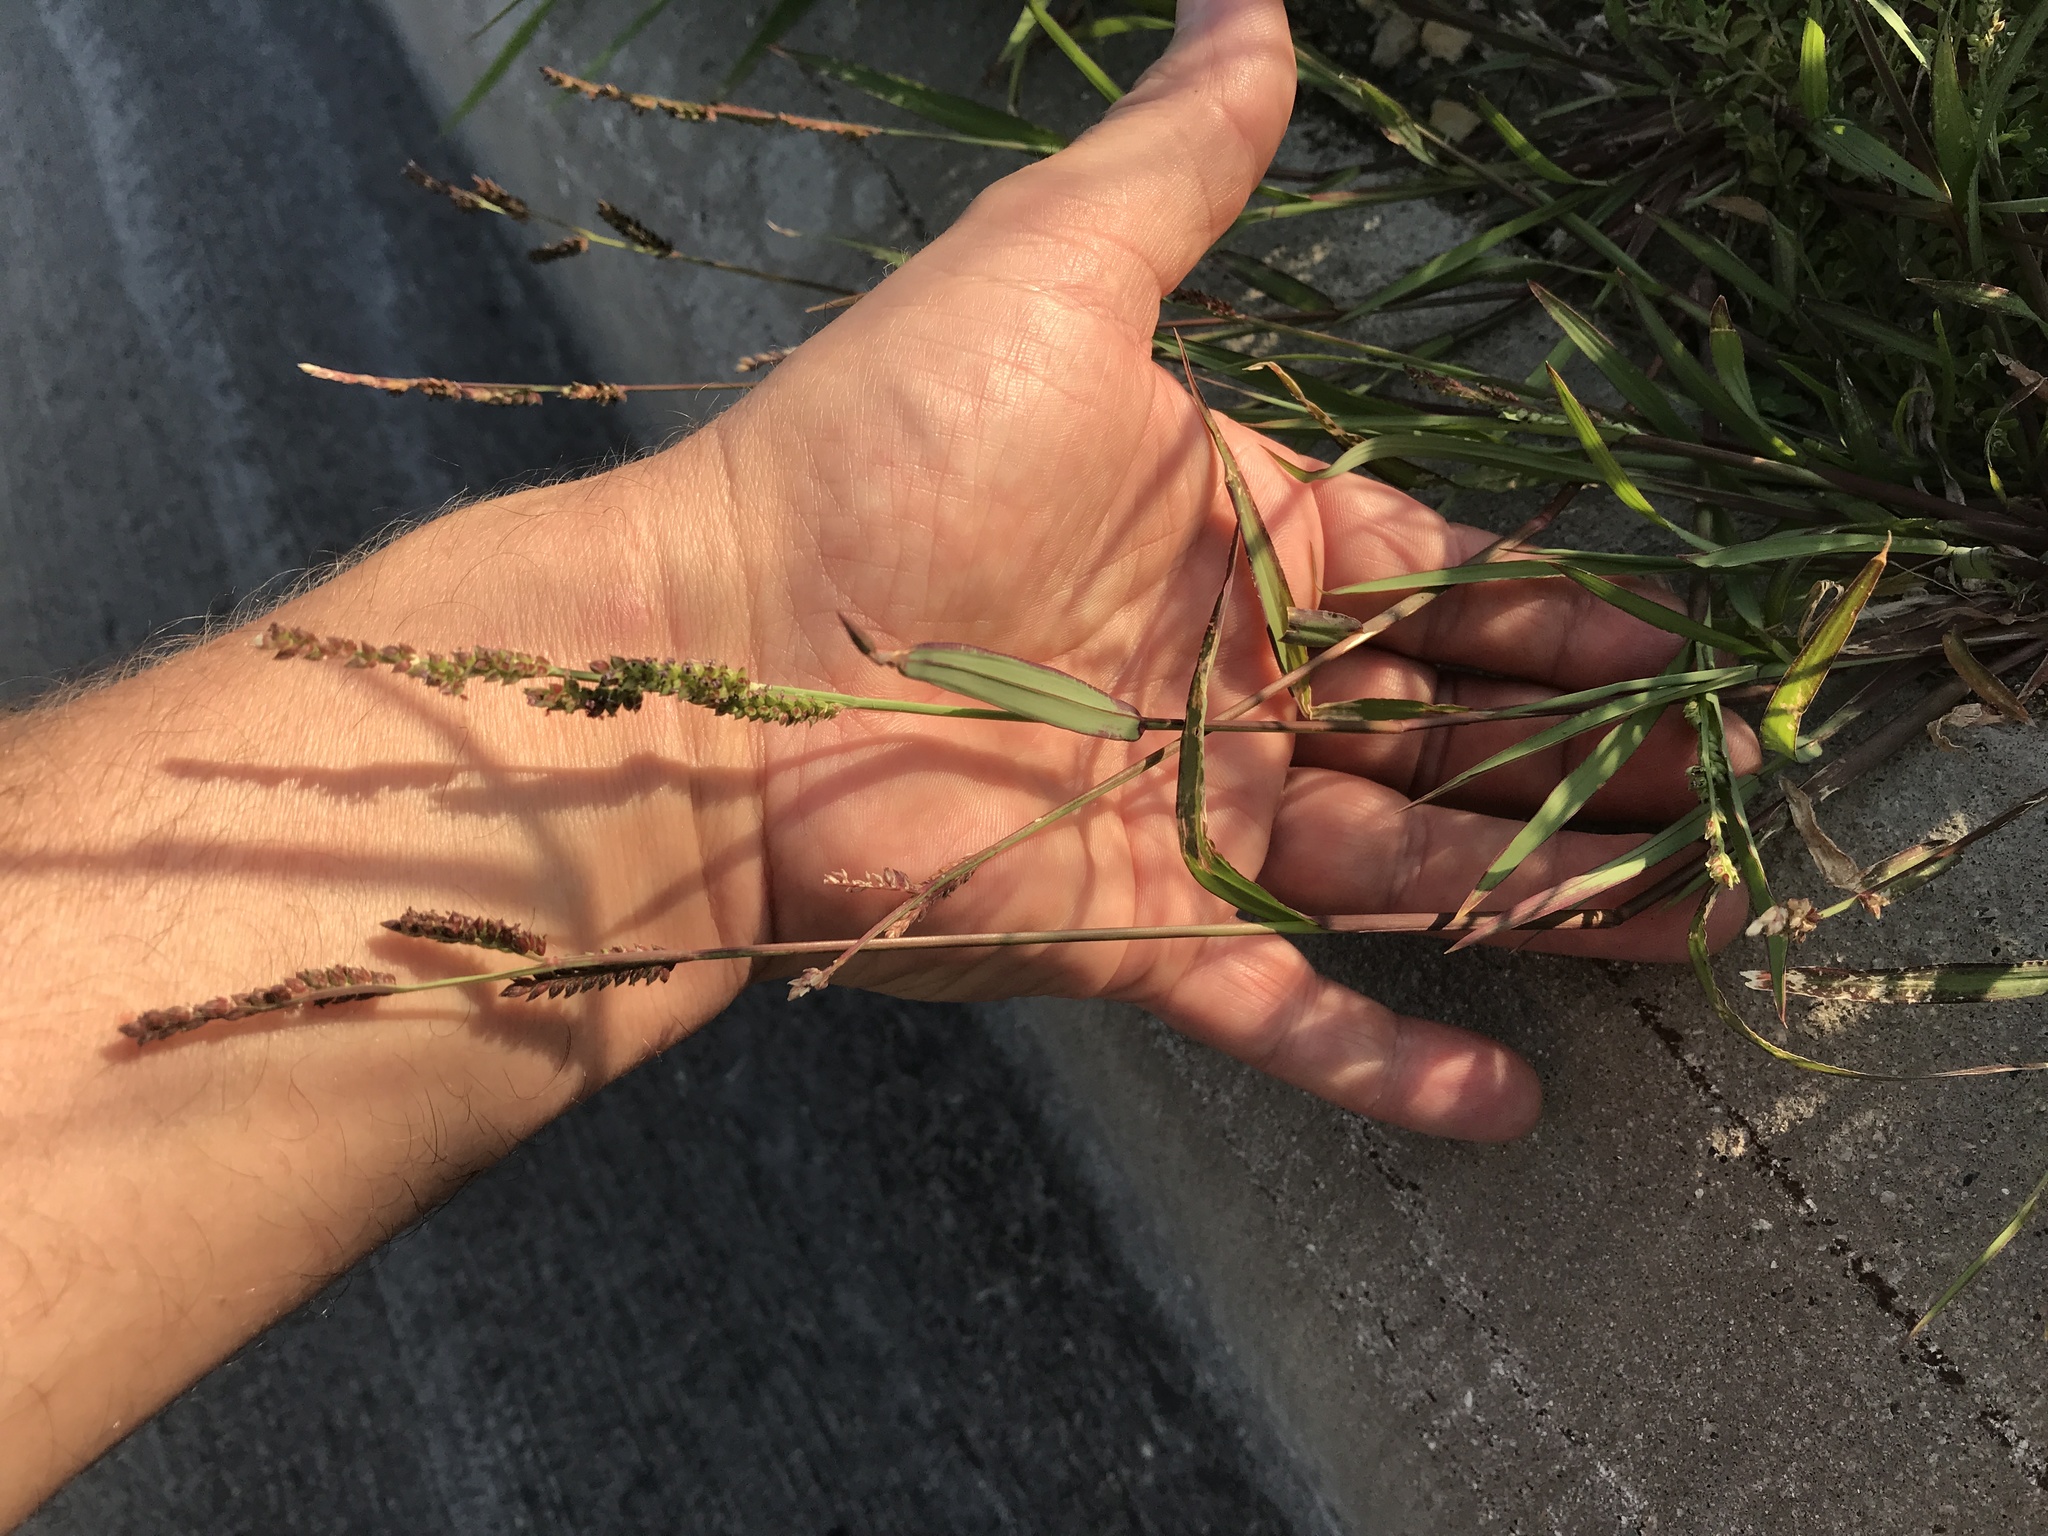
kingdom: Plantae
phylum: Tracheophyta
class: Liliopsida
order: Poales
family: Poaceae
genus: Echinochloa
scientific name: Echinochloa colonum
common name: Jungle rice
